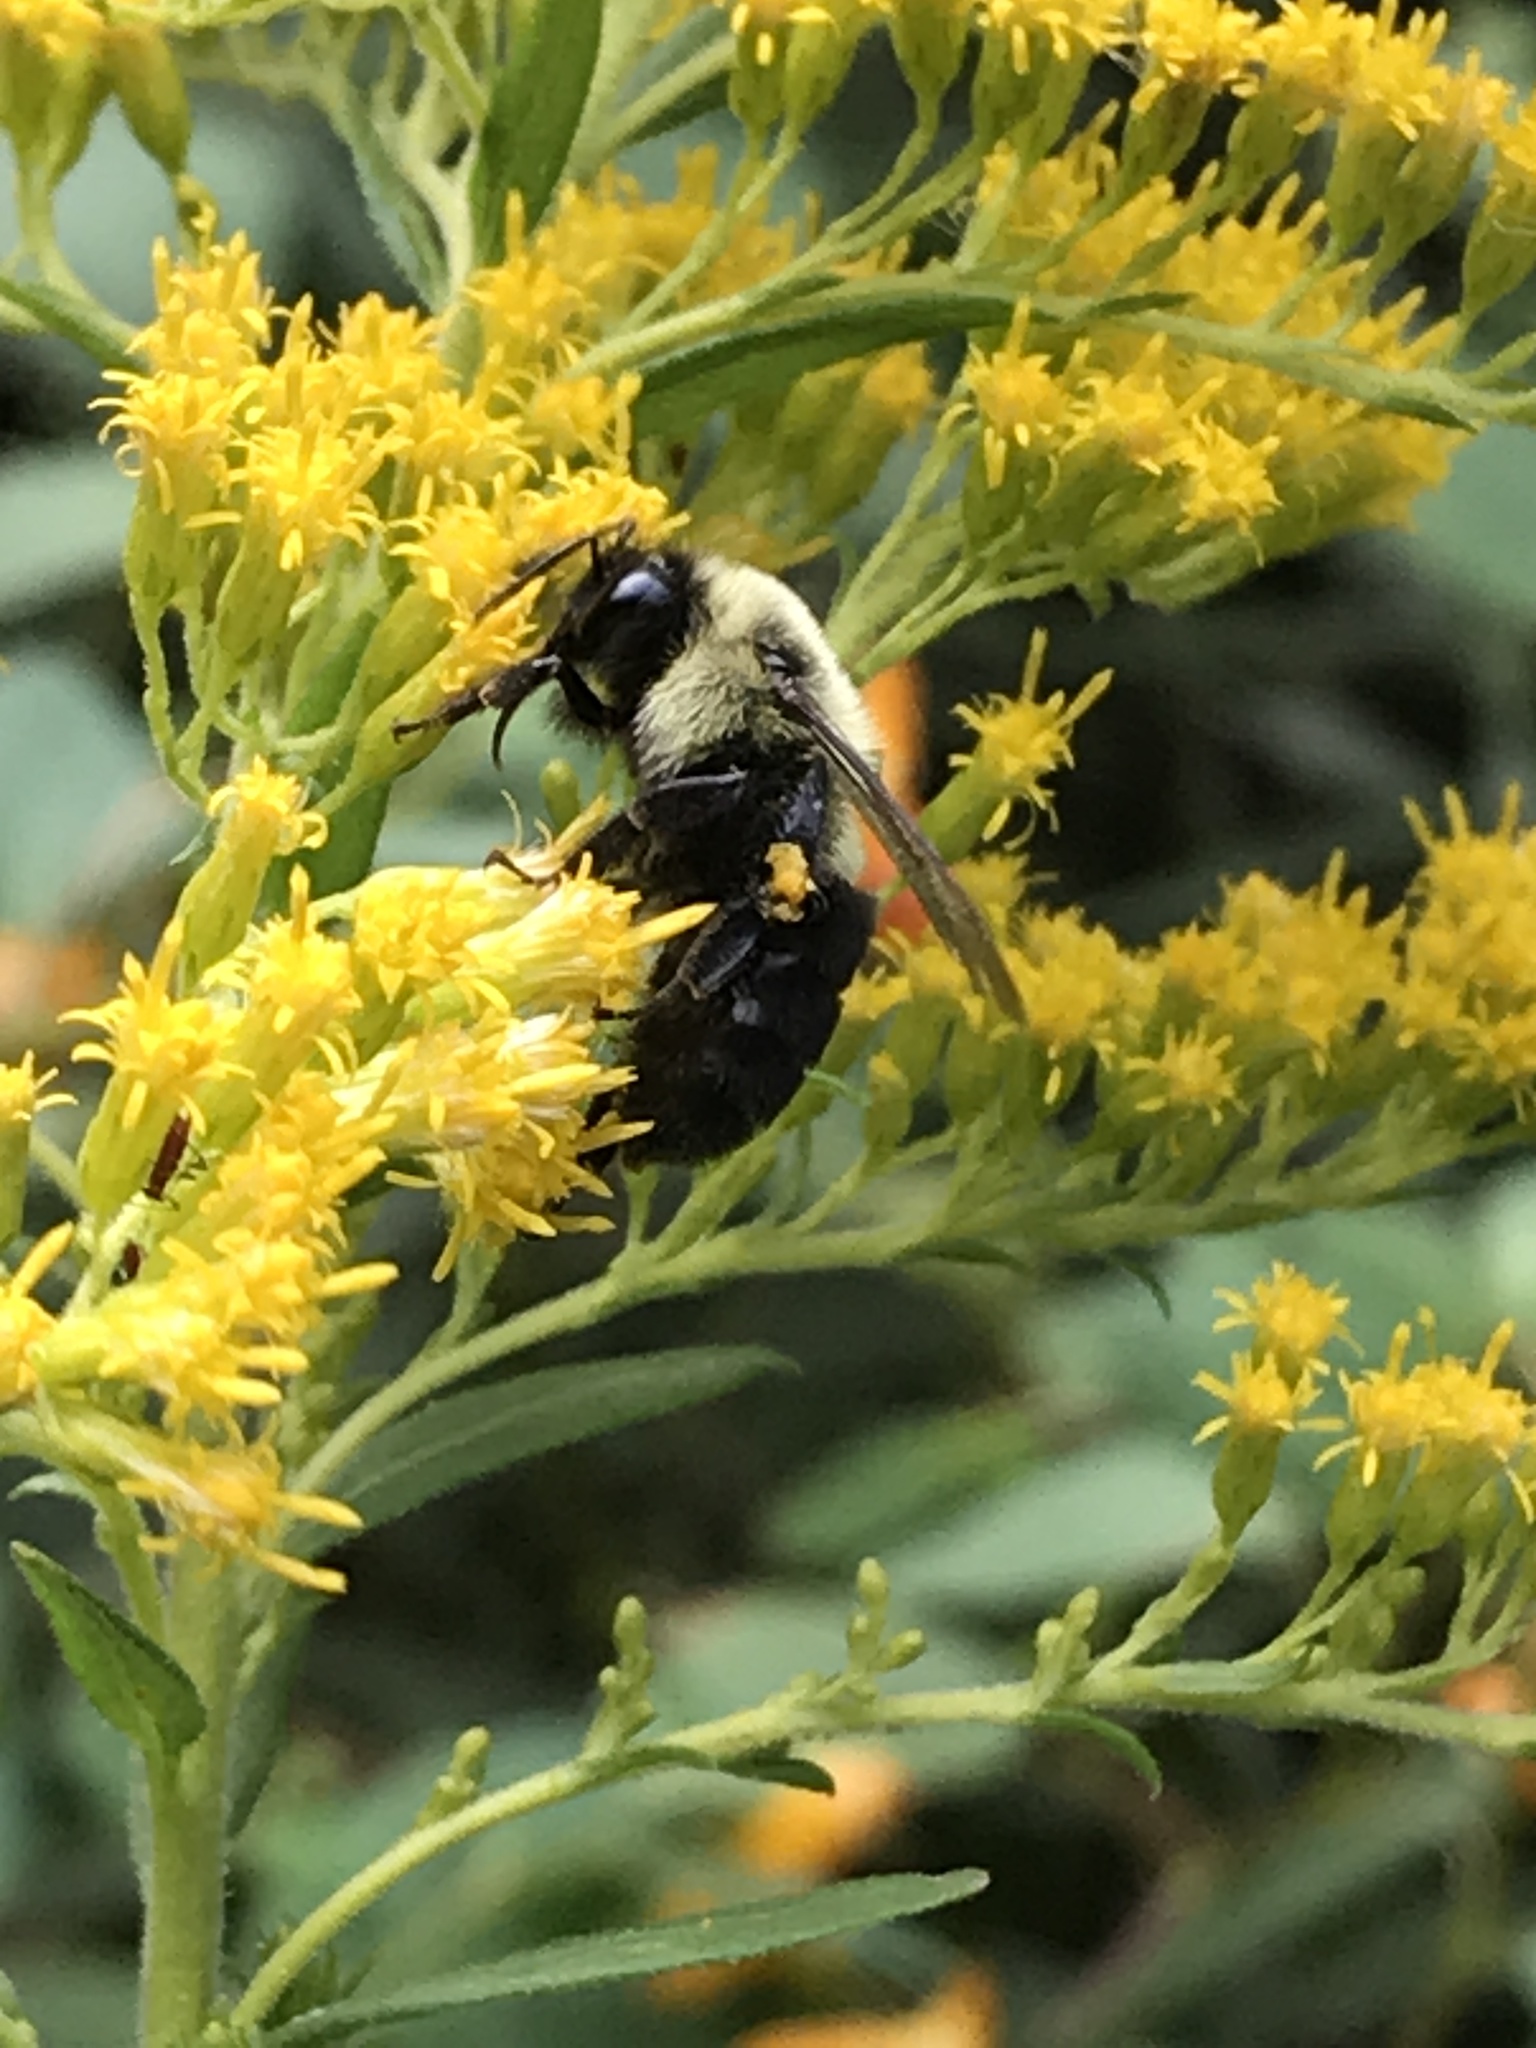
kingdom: Animalia
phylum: Arthropoda
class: Insecta
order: Hymenoptera
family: Apidae
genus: Bombus
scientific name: Bombus impatiens
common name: Common eastern bumble bee
